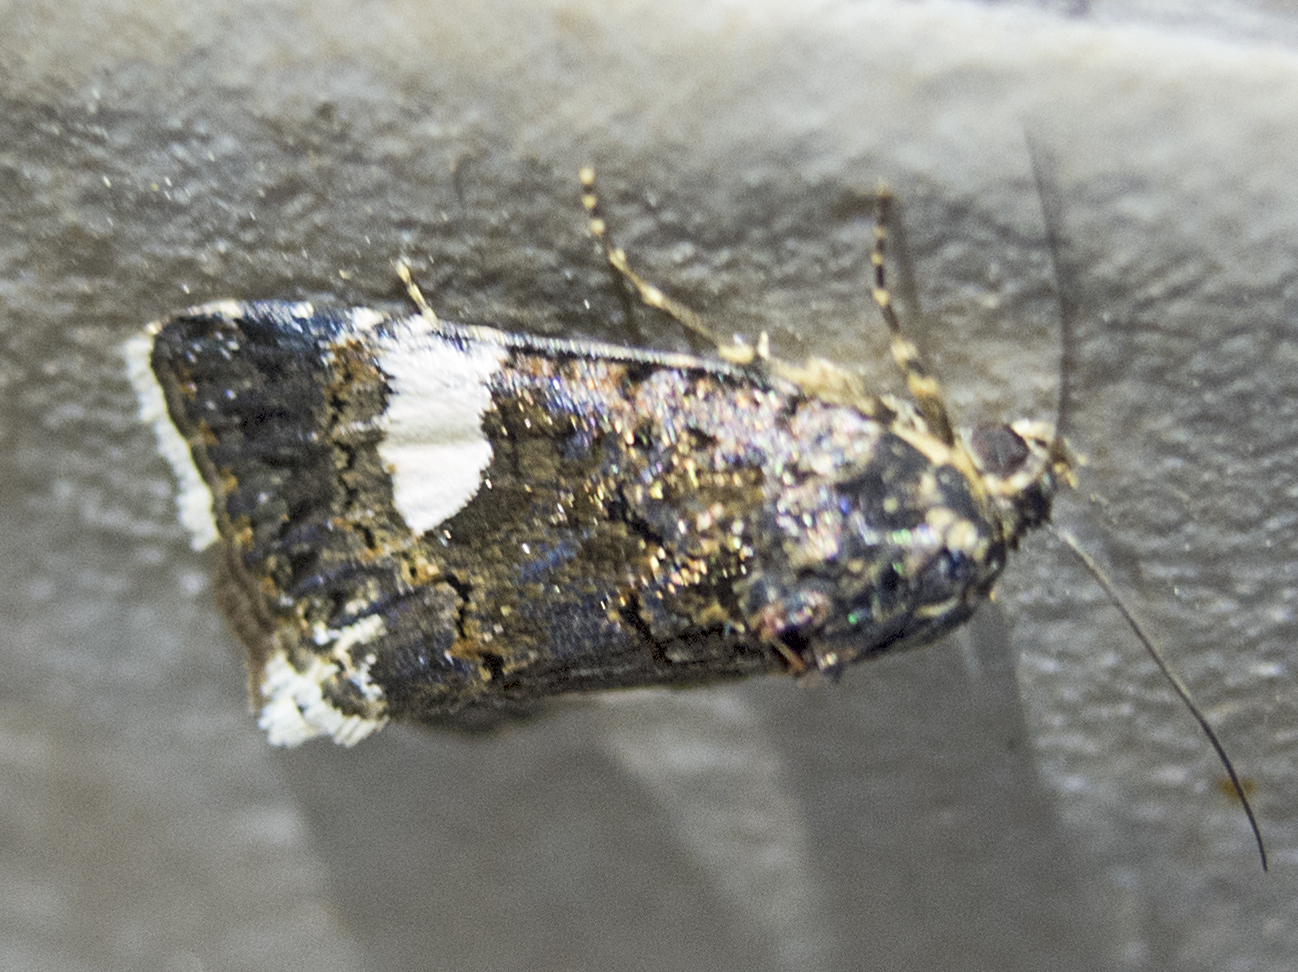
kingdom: Animalia
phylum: Arthropoda
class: Insecta
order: Lepidoptera
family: Erebidae
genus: Tyta
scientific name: Tyta luctuosa
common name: Four-spotted
